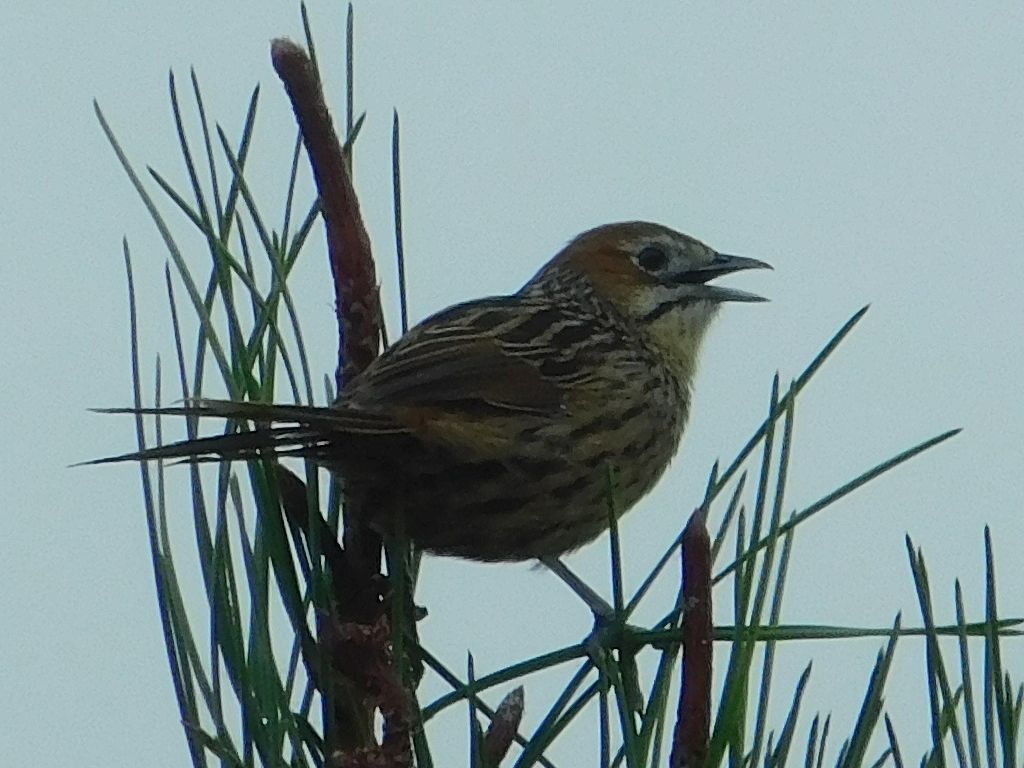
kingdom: Animalia
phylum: Chordata
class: Aves
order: Passeriformes
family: Macrosphenidae
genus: Sphenoeacus
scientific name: Sphenoeacus afer
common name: Cape grassbird
